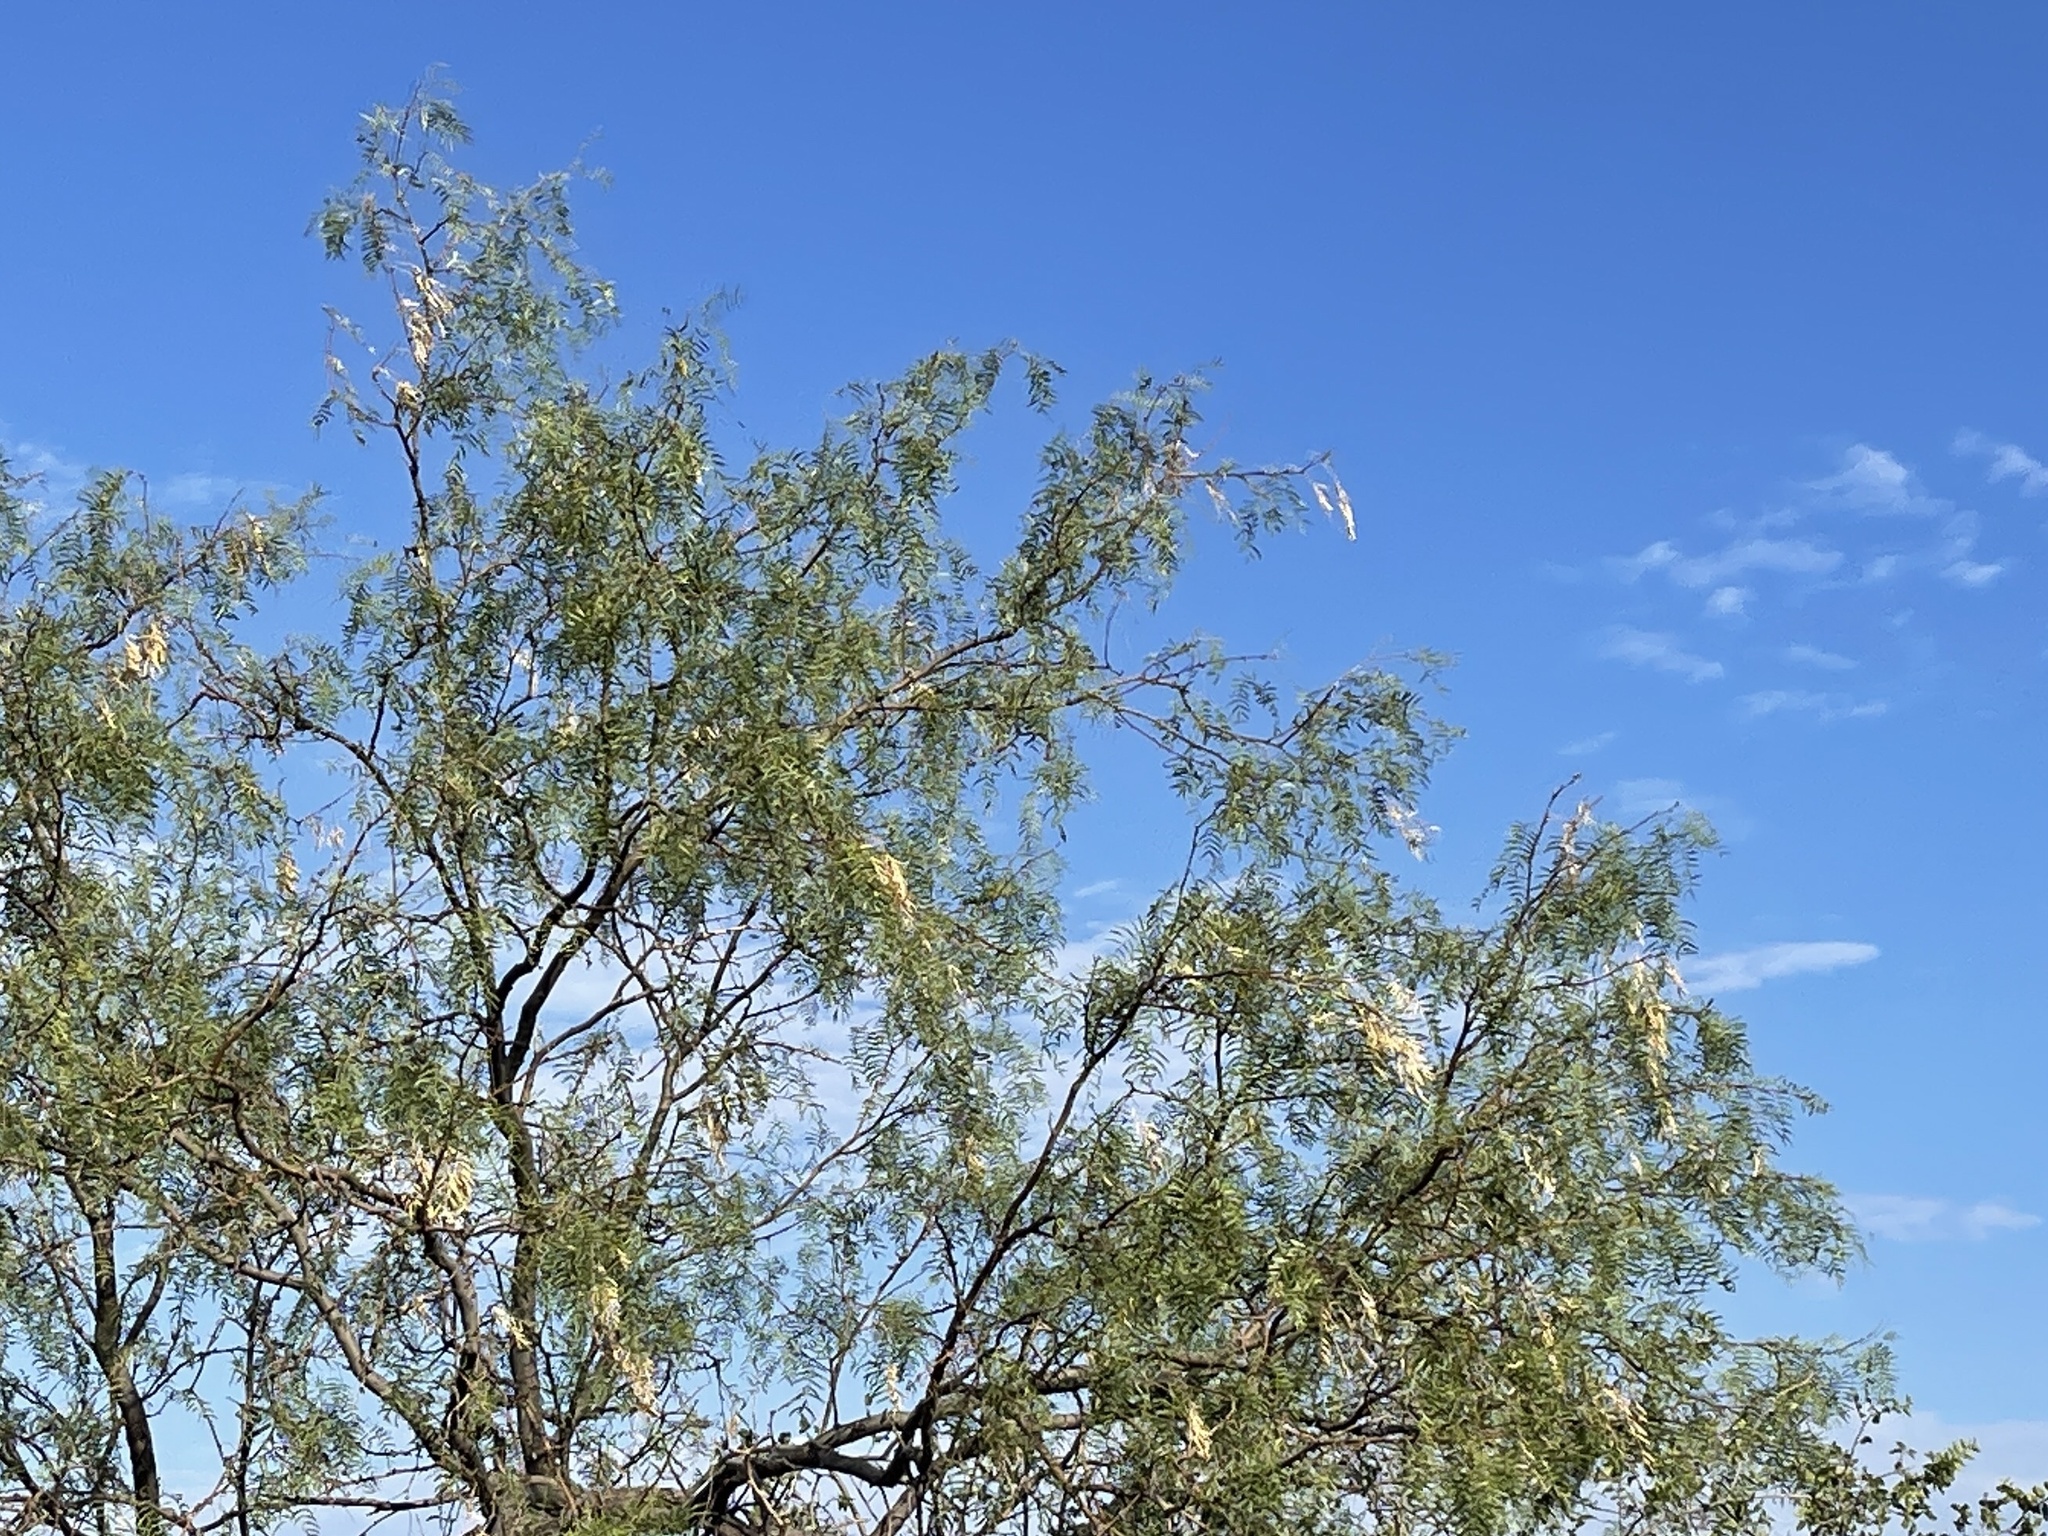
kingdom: Plantae
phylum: Tracheophyta
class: Magnoliopsida
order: Fabales
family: Fabaceae
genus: Prosopis
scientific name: Prosopis glandulosa
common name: Honey mesquite
